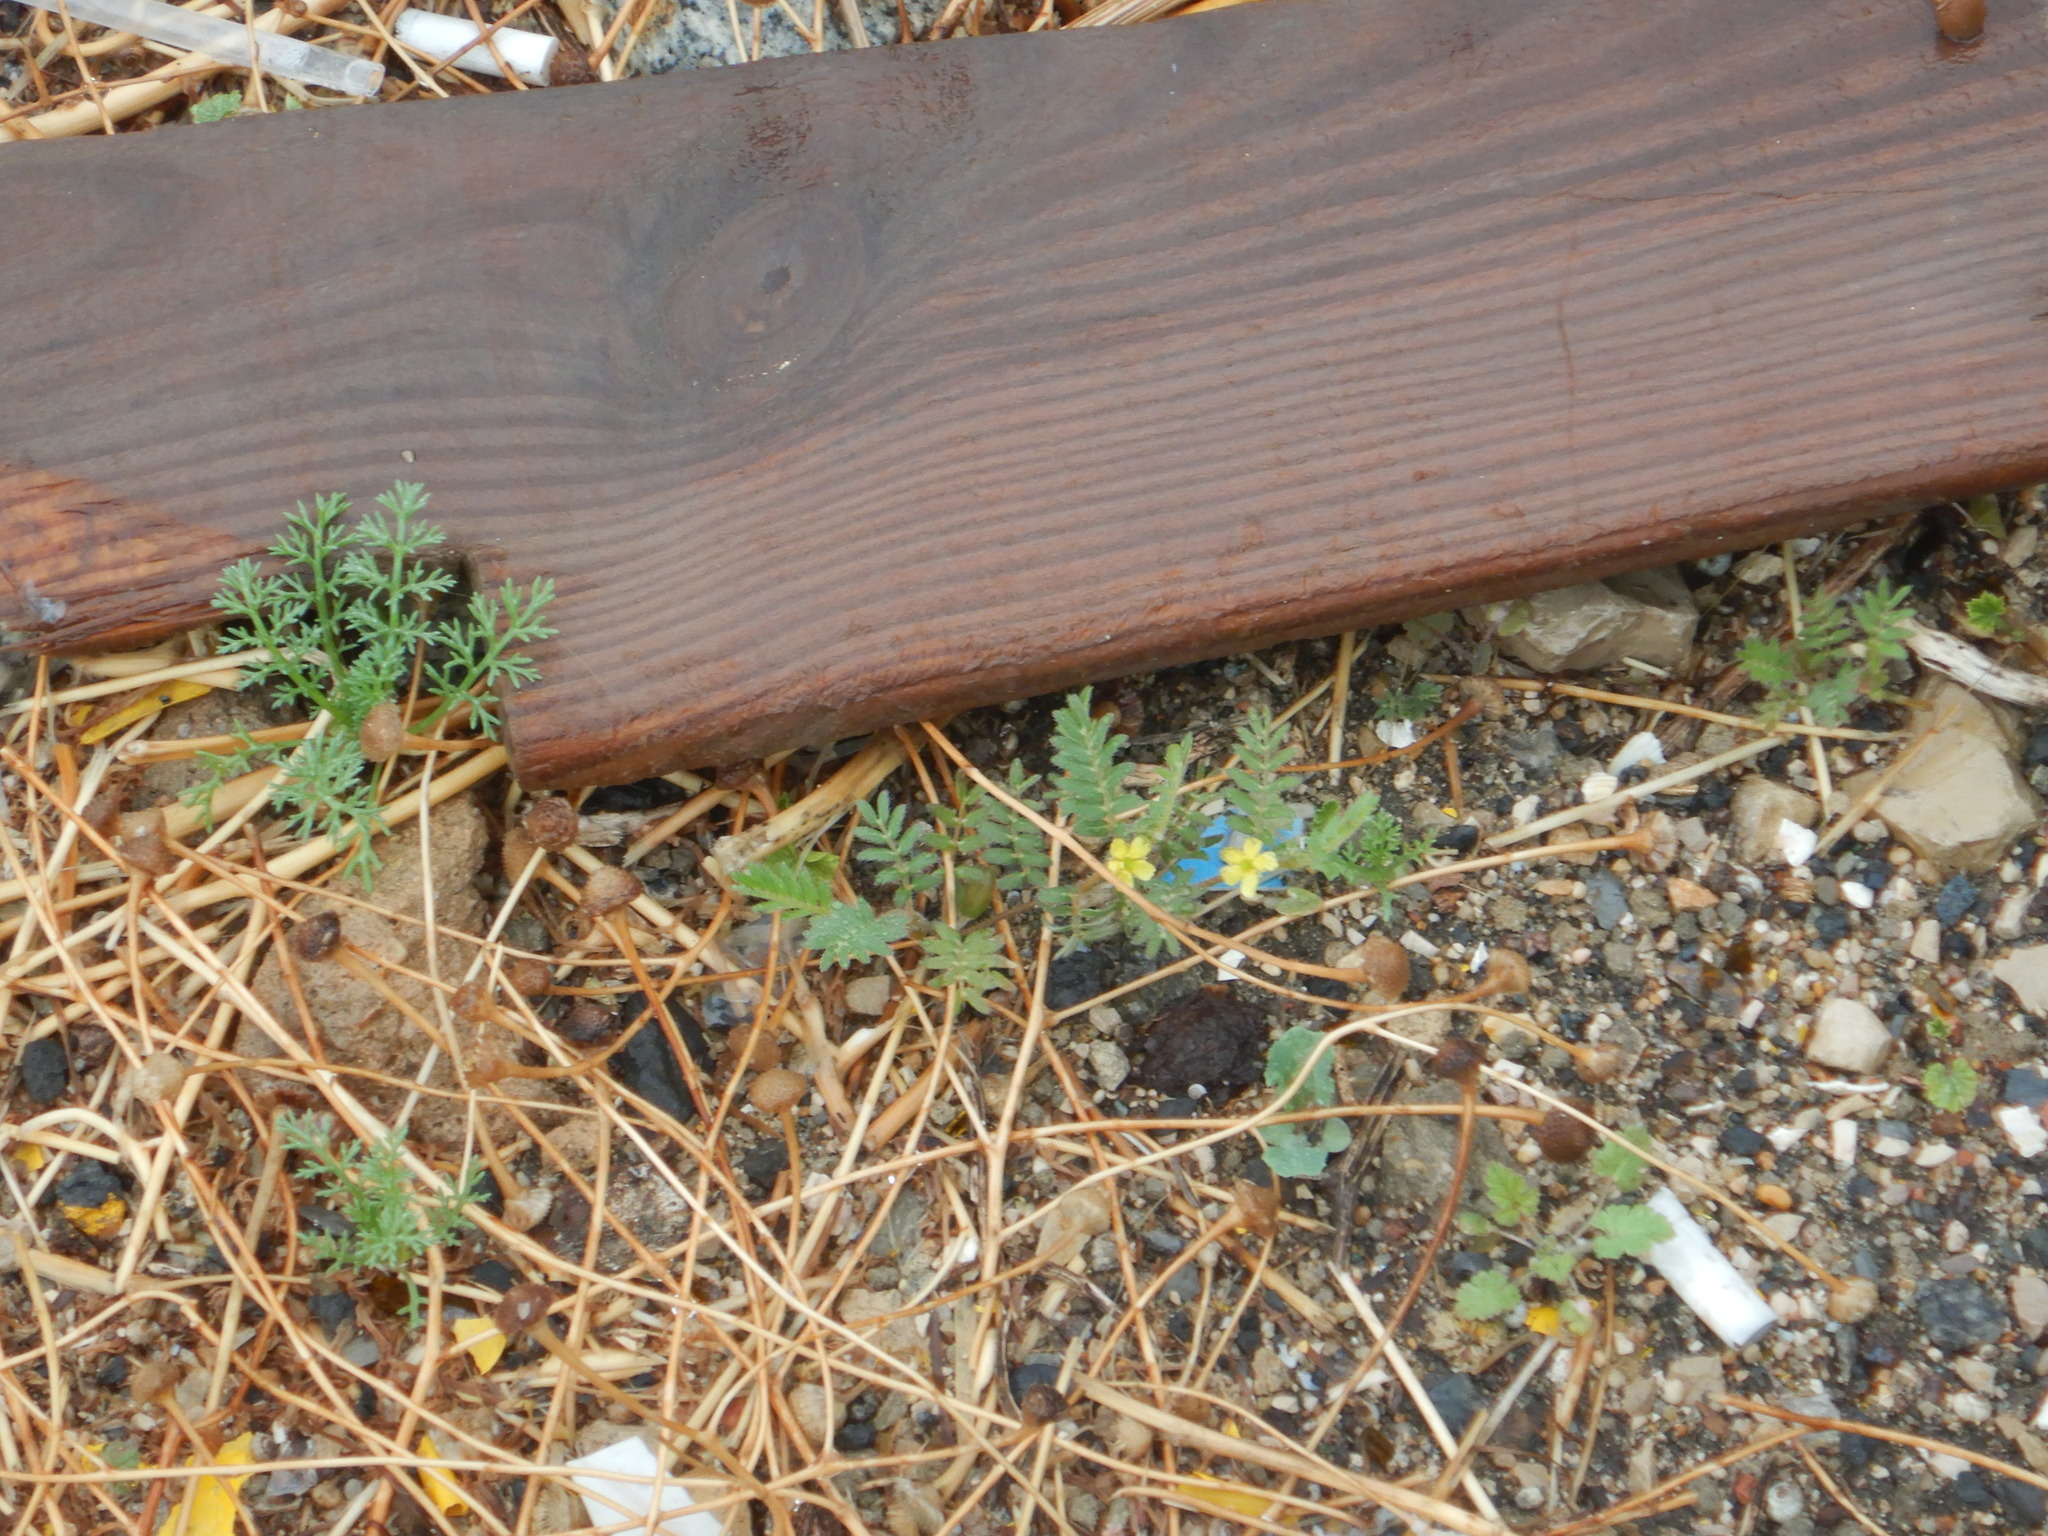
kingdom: Plantae
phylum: Tracheophyta
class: Magnoliopsida
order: Zygophyllales
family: Zygophyllaceae
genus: Tribulus
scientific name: Tribulus terrestris
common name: Puncturevine
